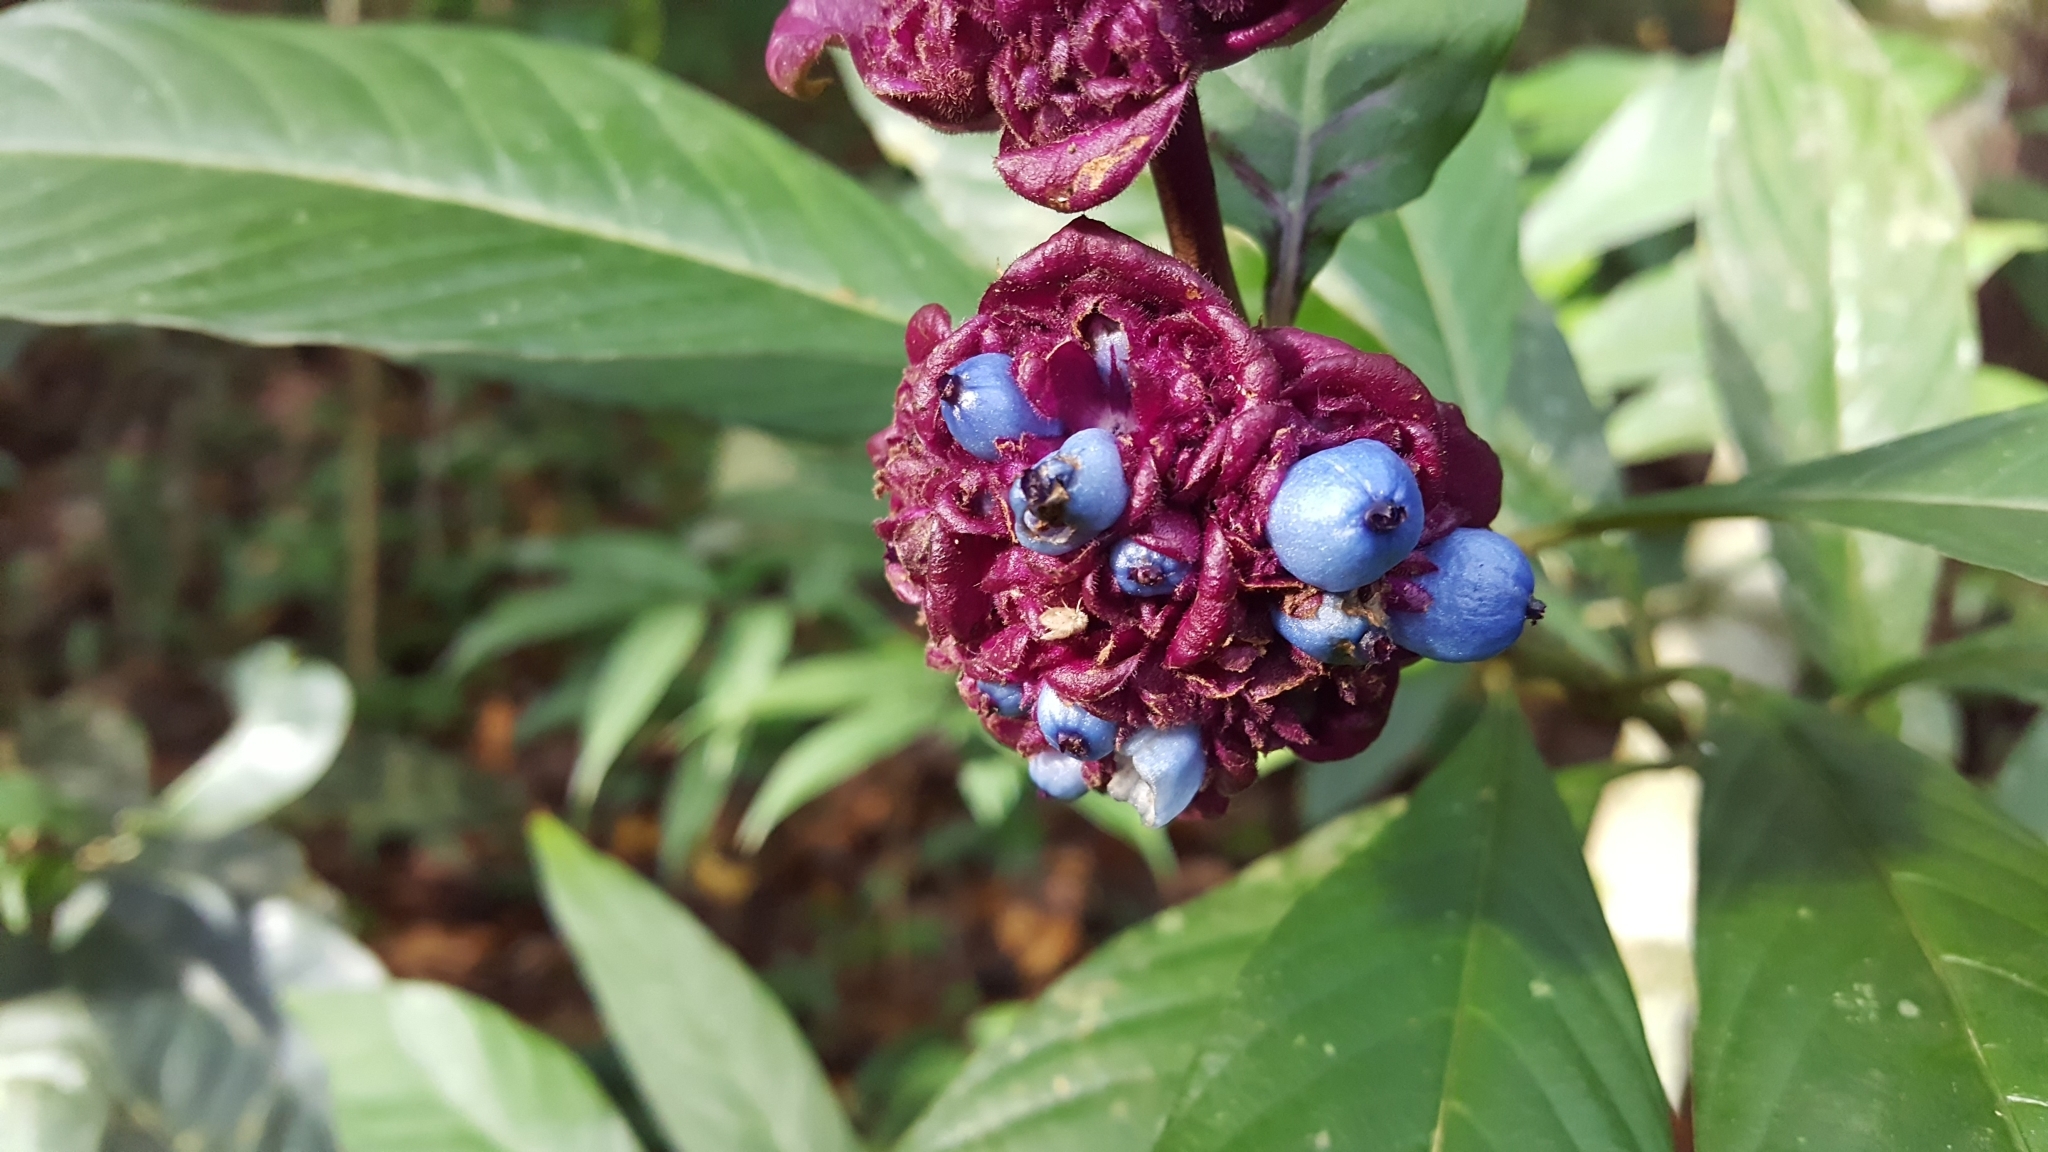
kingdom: Plantae
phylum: Tracheophyta
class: Magnoliopsida
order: Gentianales
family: Rubiaceae
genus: Palicourea
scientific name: Palicourea colorata
